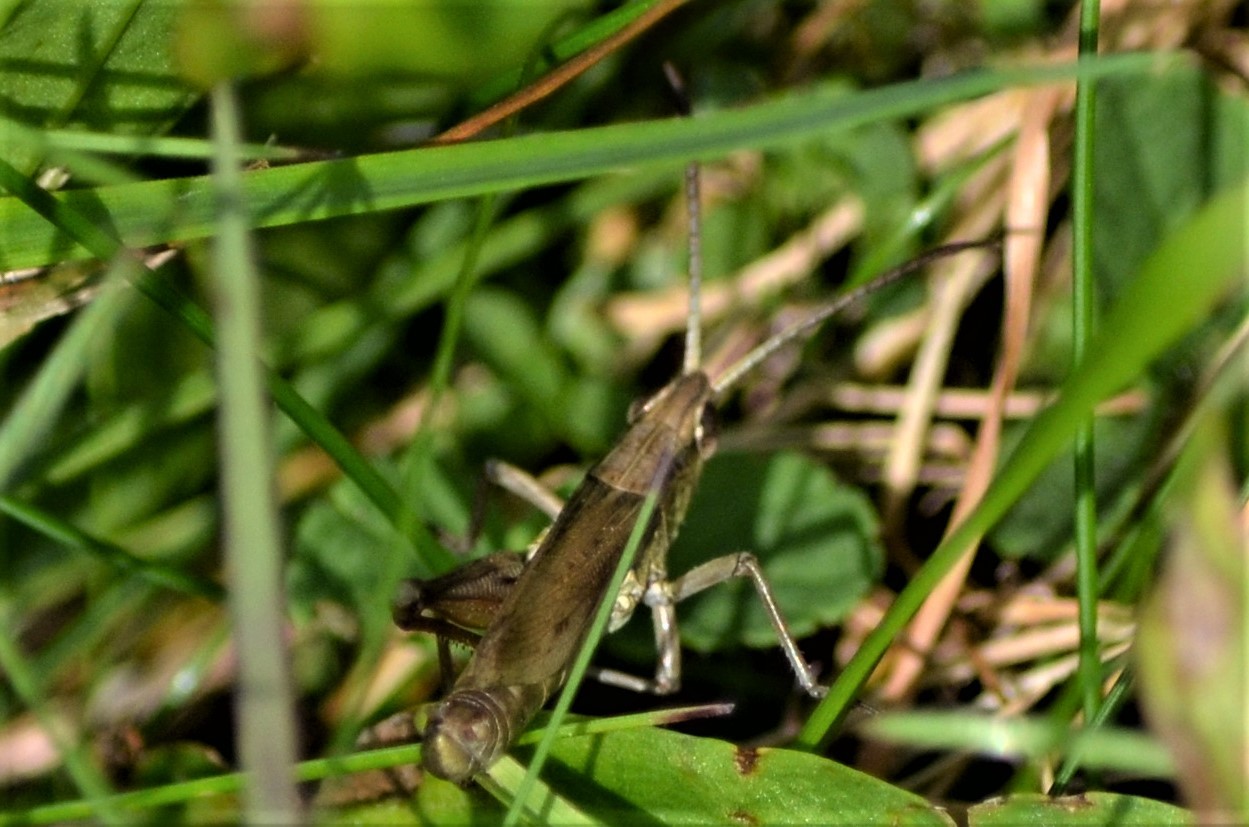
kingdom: Animalia
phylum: Arthropoda
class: Insecta
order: Orthoptera
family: Acrididae
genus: Chorthippus
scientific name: Chorthippus dorsatus
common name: Steppe grasshopper
